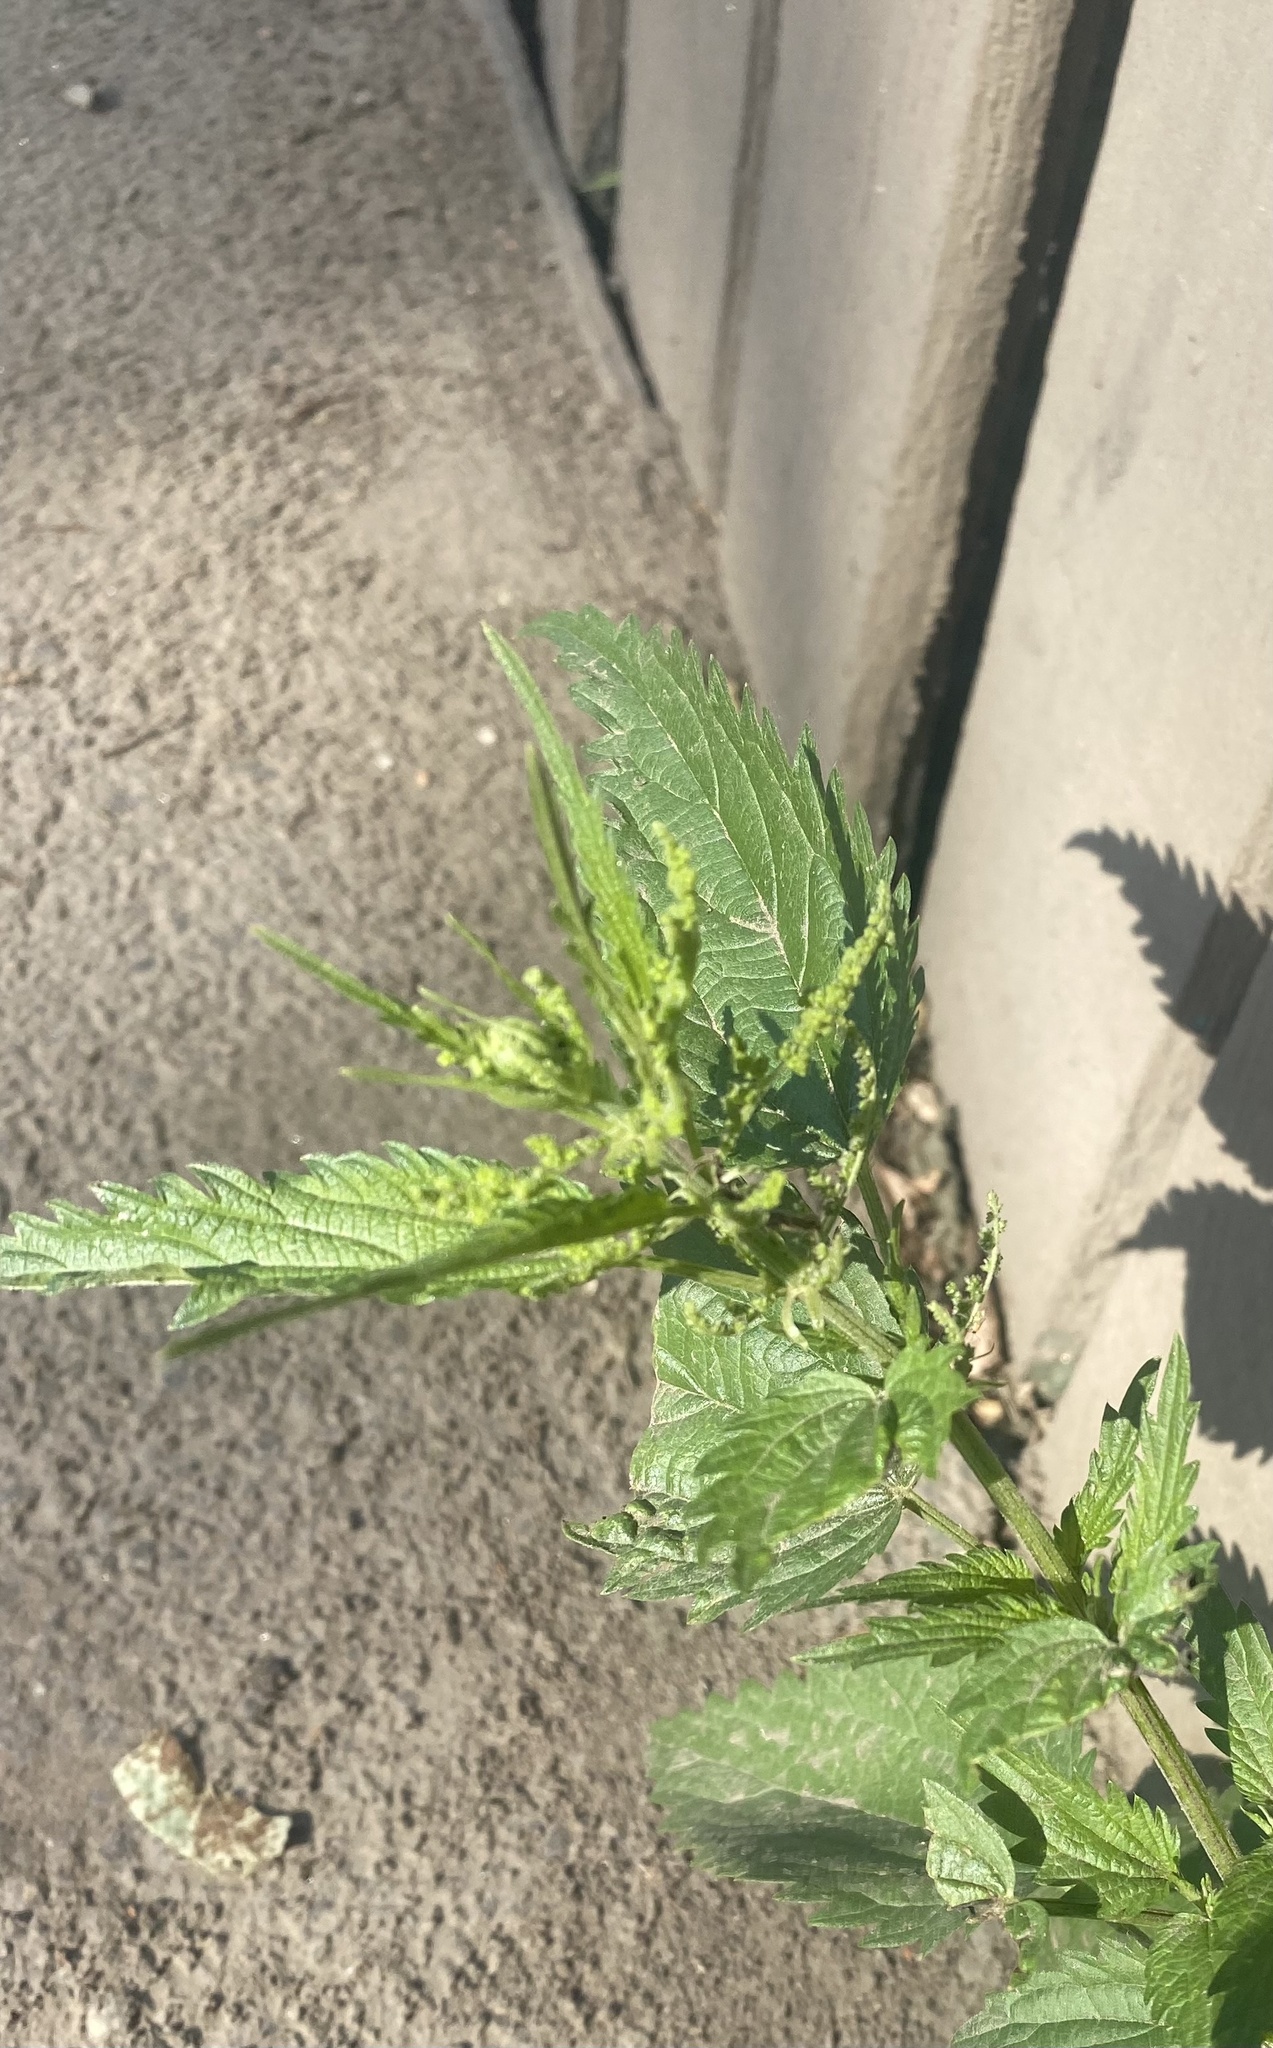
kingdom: Plantae
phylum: Tracheophyta
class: Magnoliopsida
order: Rosales
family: Urticaceae
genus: Urtica
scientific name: Urtica dioica
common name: Common nettle
